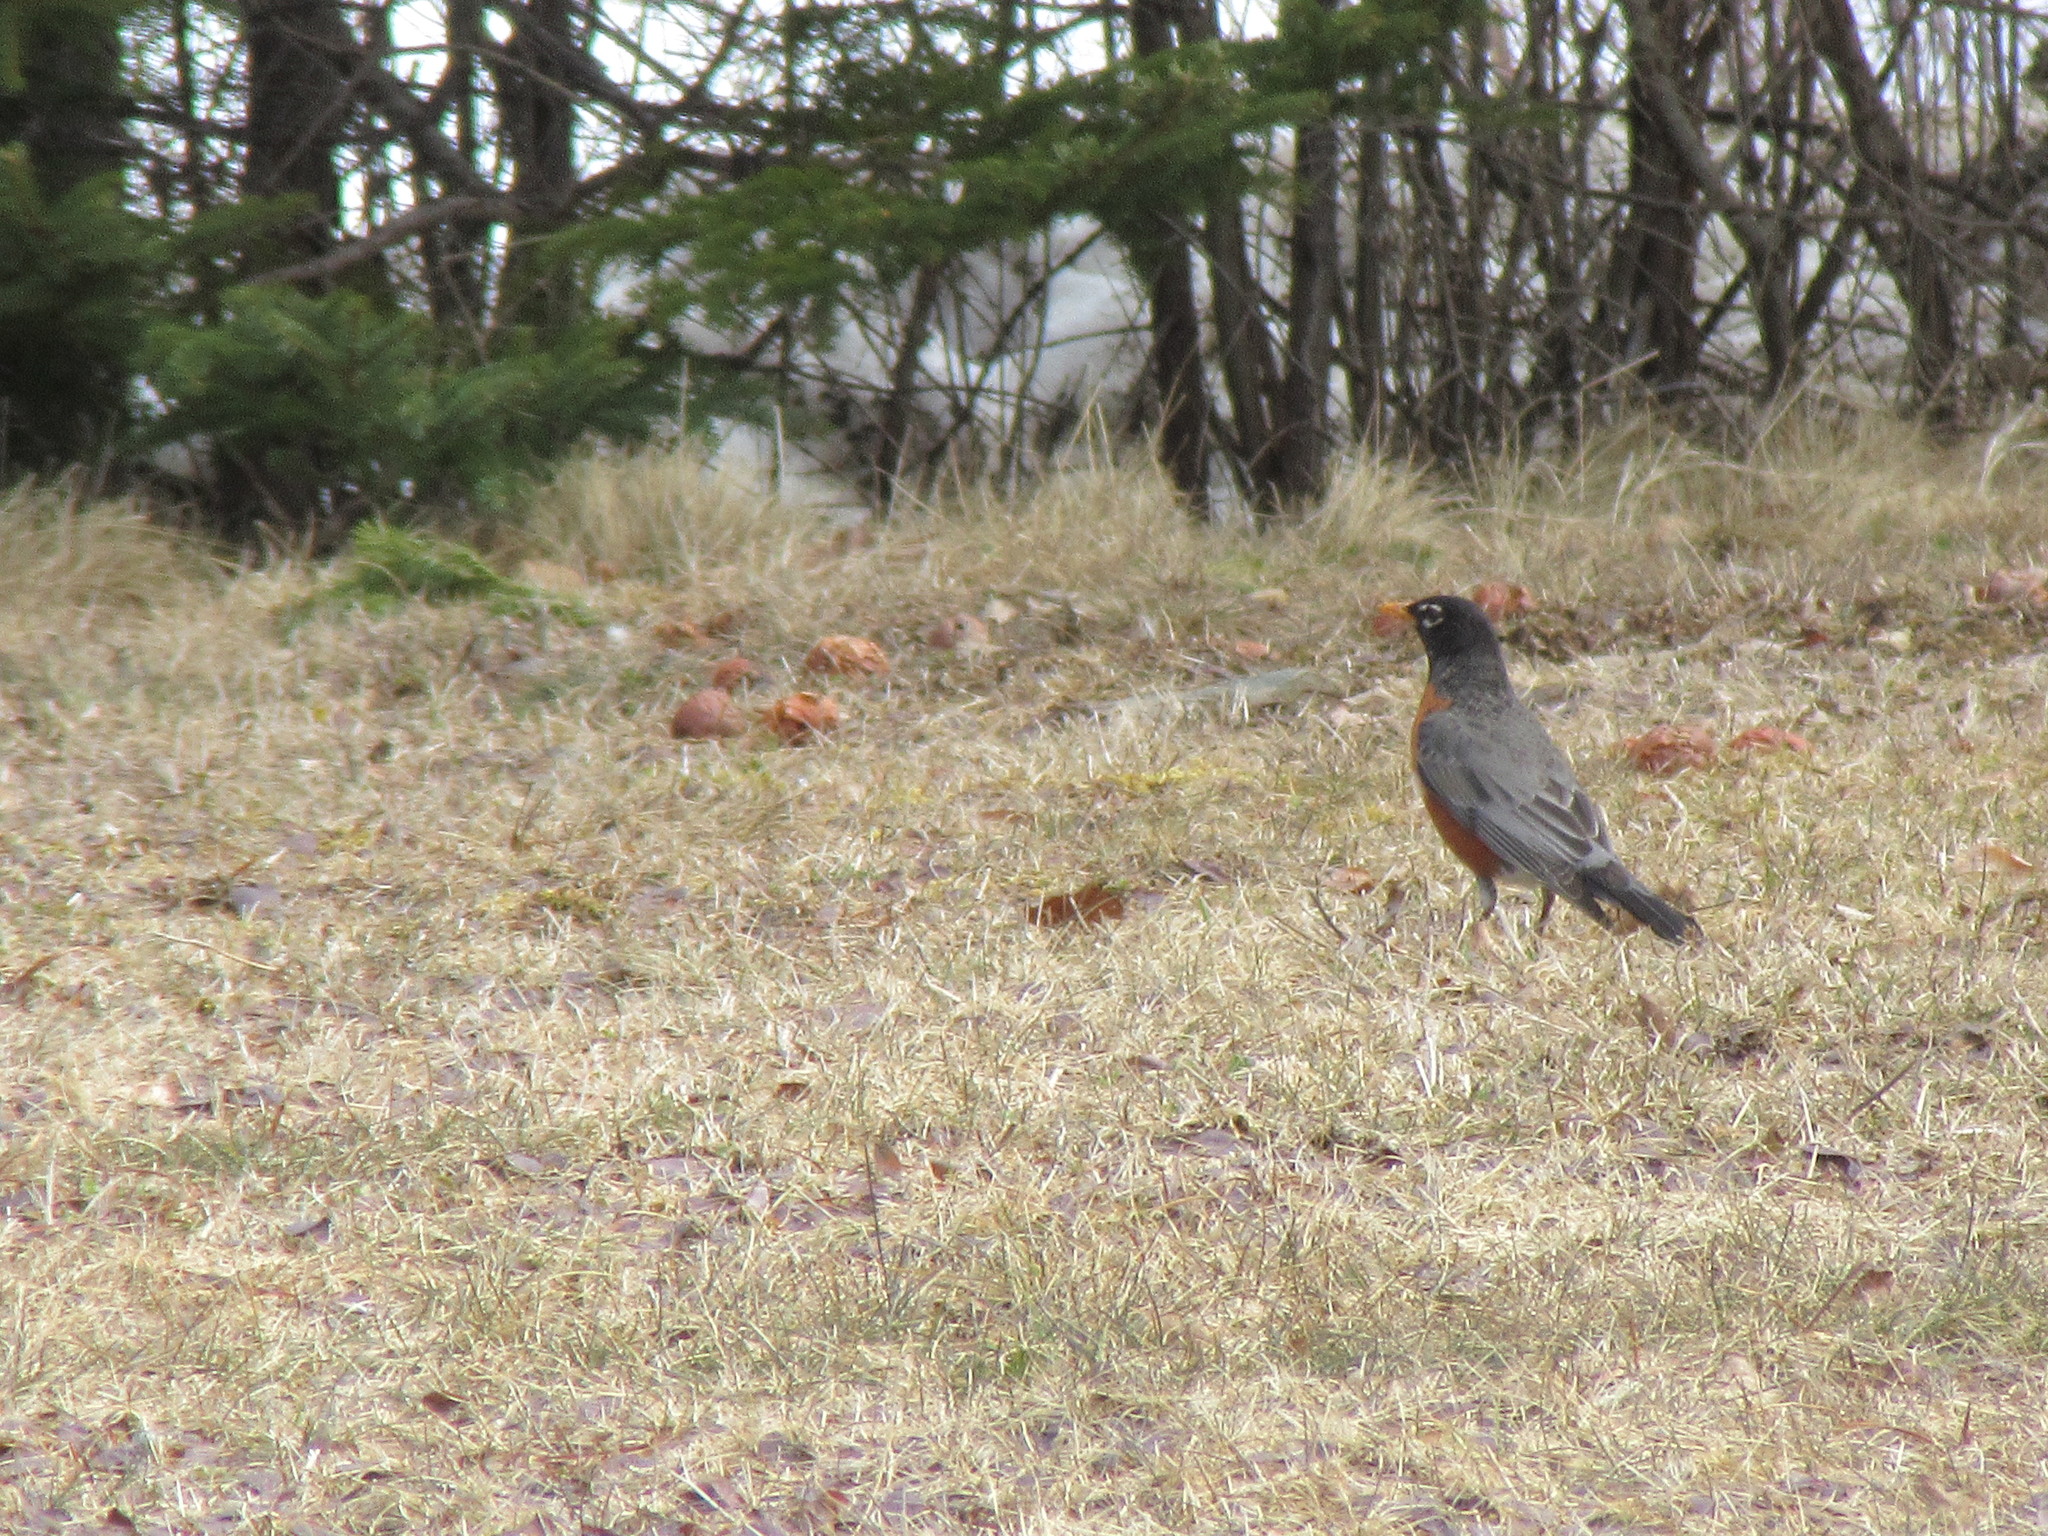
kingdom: Animalia
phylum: Chordata
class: Aves
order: Passeriformes
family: Turdidae
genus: Turdus
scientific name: Turdus migratorius
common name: American robin
